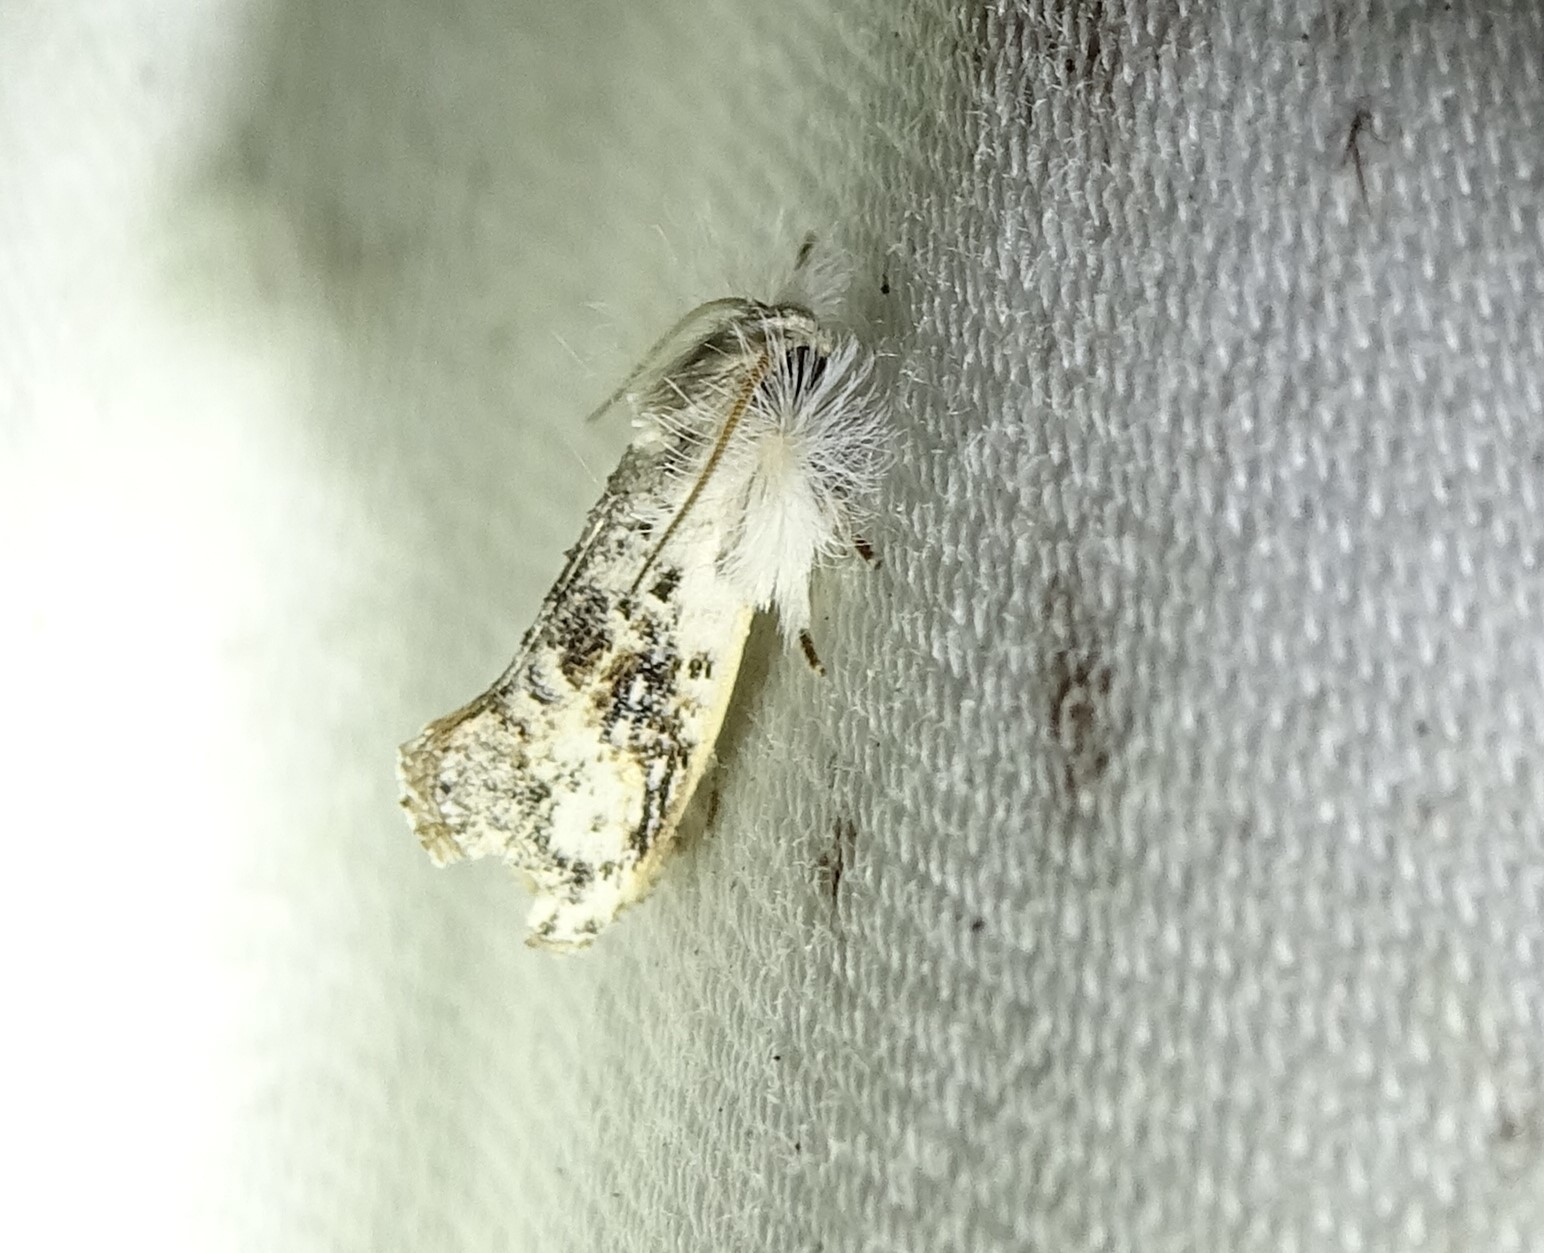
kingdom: Animalia
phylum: Arthropoda
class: Insecta
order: Lepidoptera
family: Tineidae
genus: Acrolophus
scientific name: Acrolophus mycetophagus
